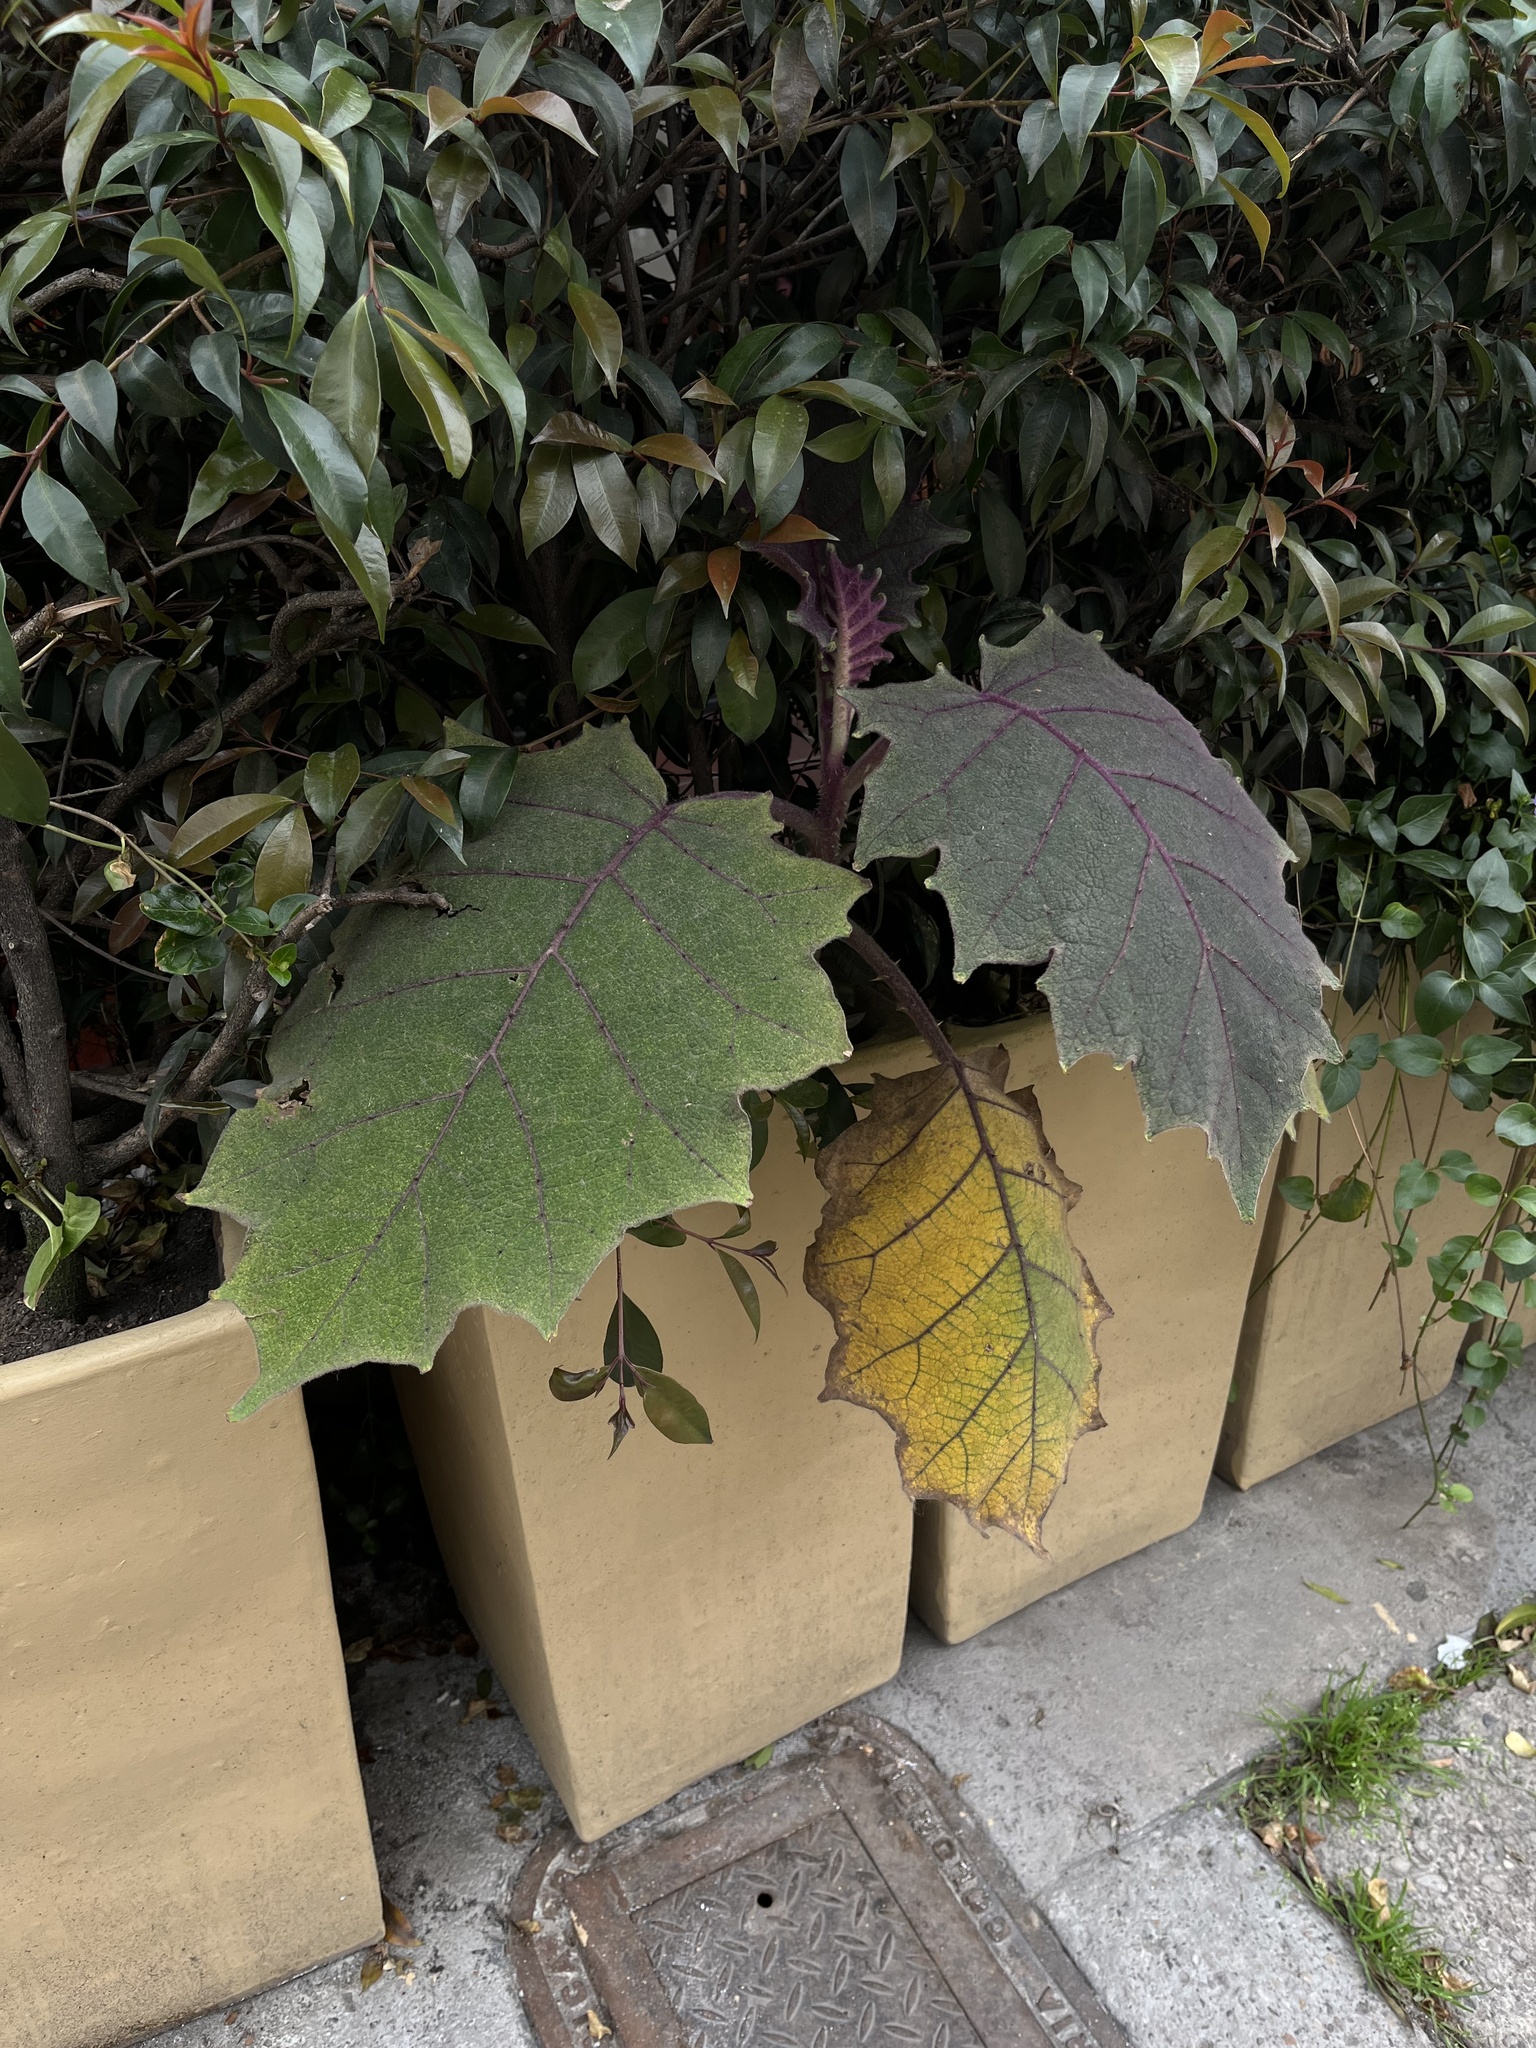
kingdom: Plantae
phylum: Tracheophyta
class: Magnoliopsida
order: Solanales
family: Solanaceae
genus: Solanum
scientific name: Solanum quitoense
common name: Quito-orange
